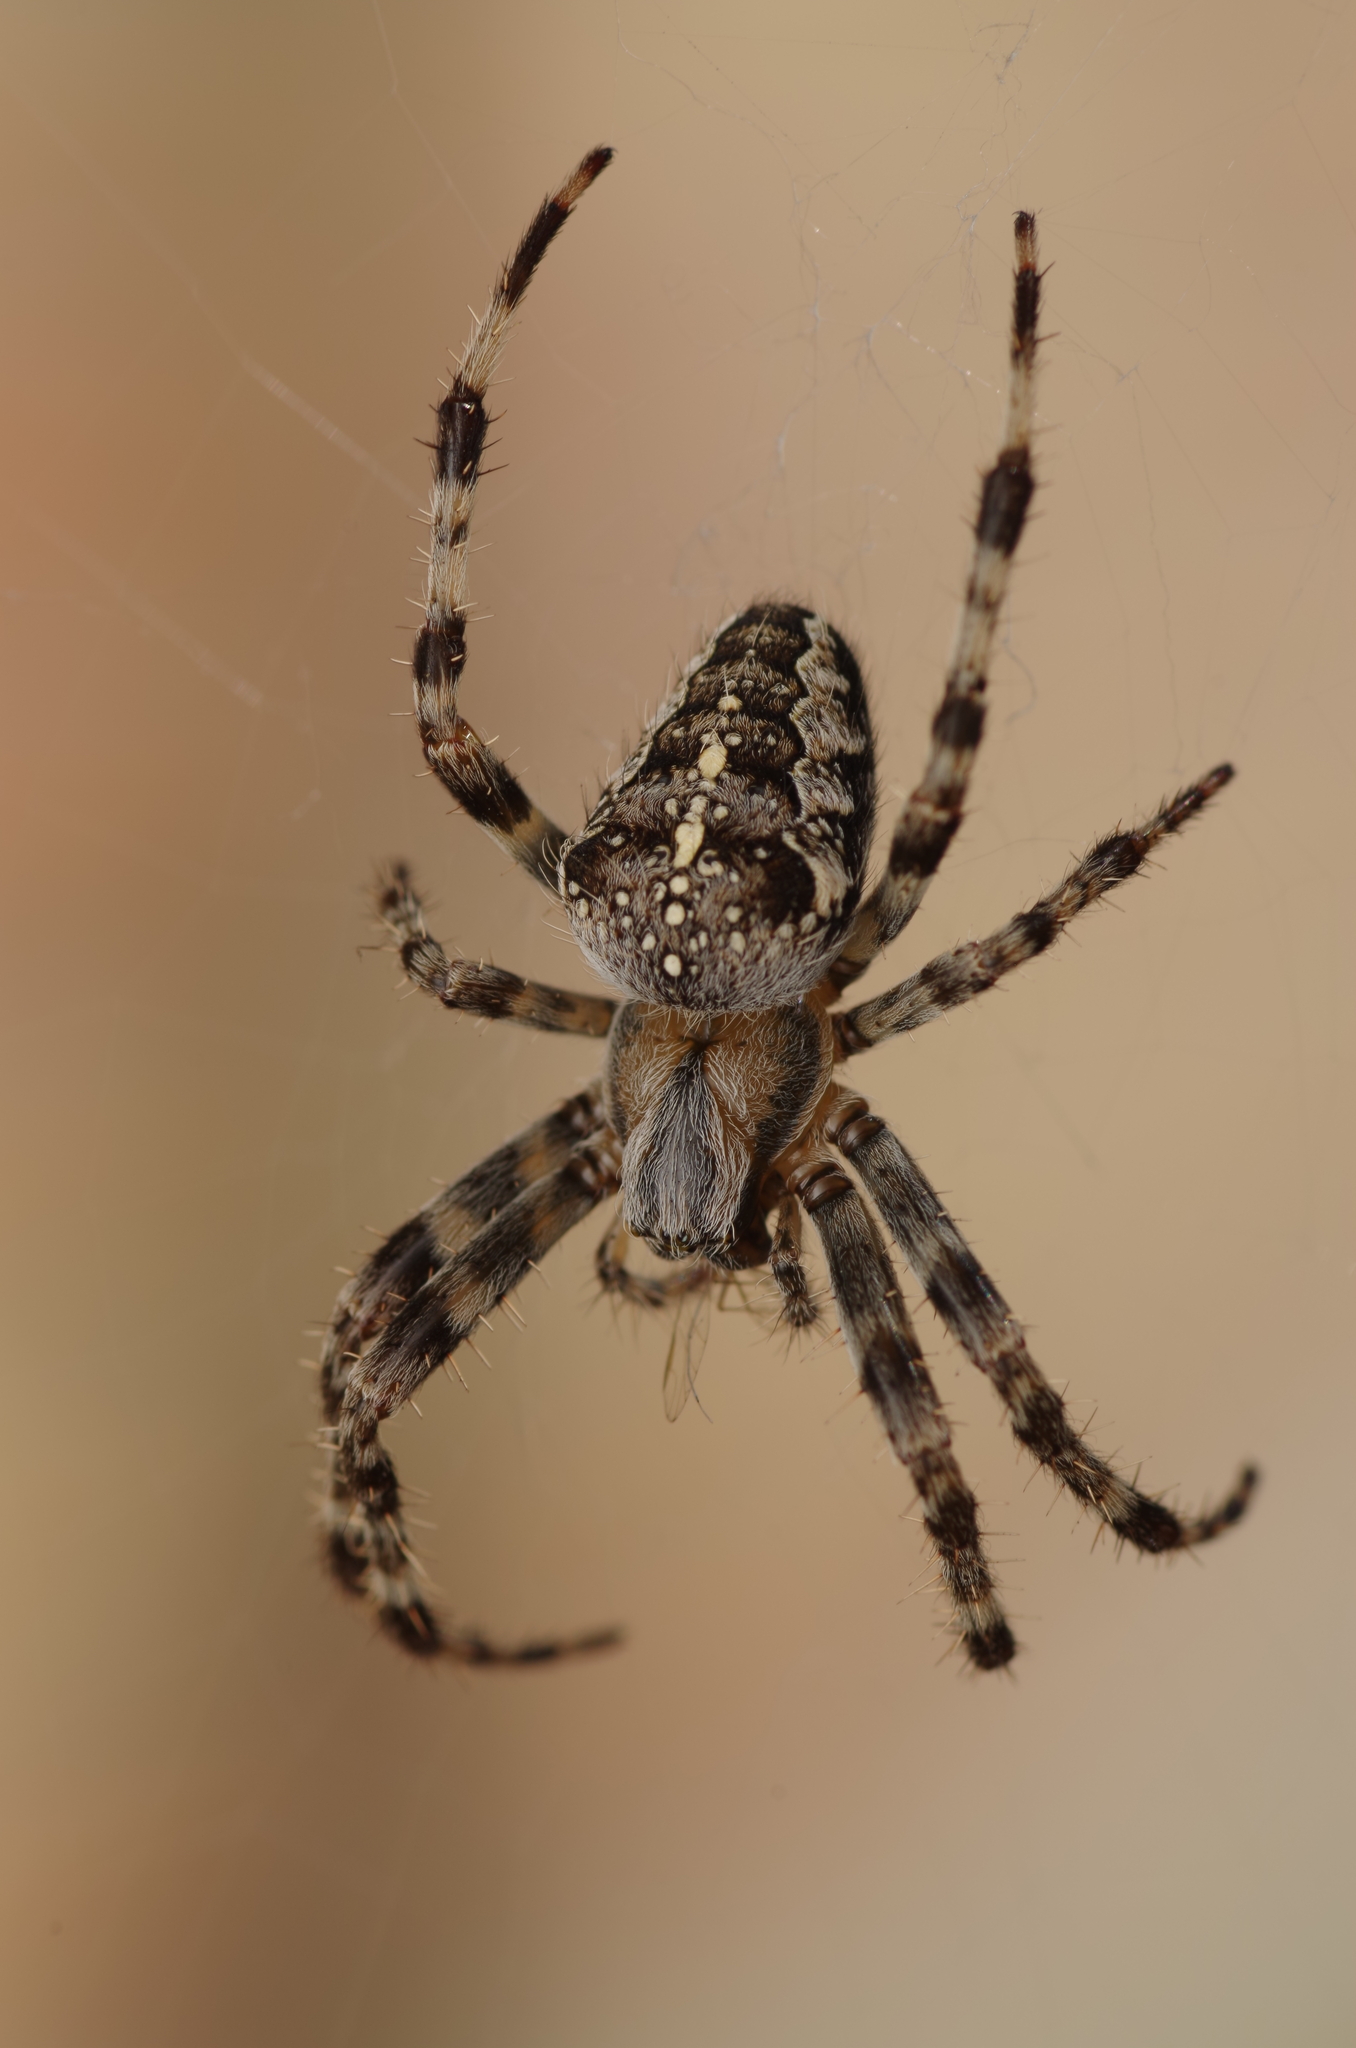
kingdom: Animalia
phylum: Arthropoda
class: Arachnida
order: Araneae
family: Araneidae
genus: Araneus
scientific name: Araneus diadematus
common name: Cross orbweaver
